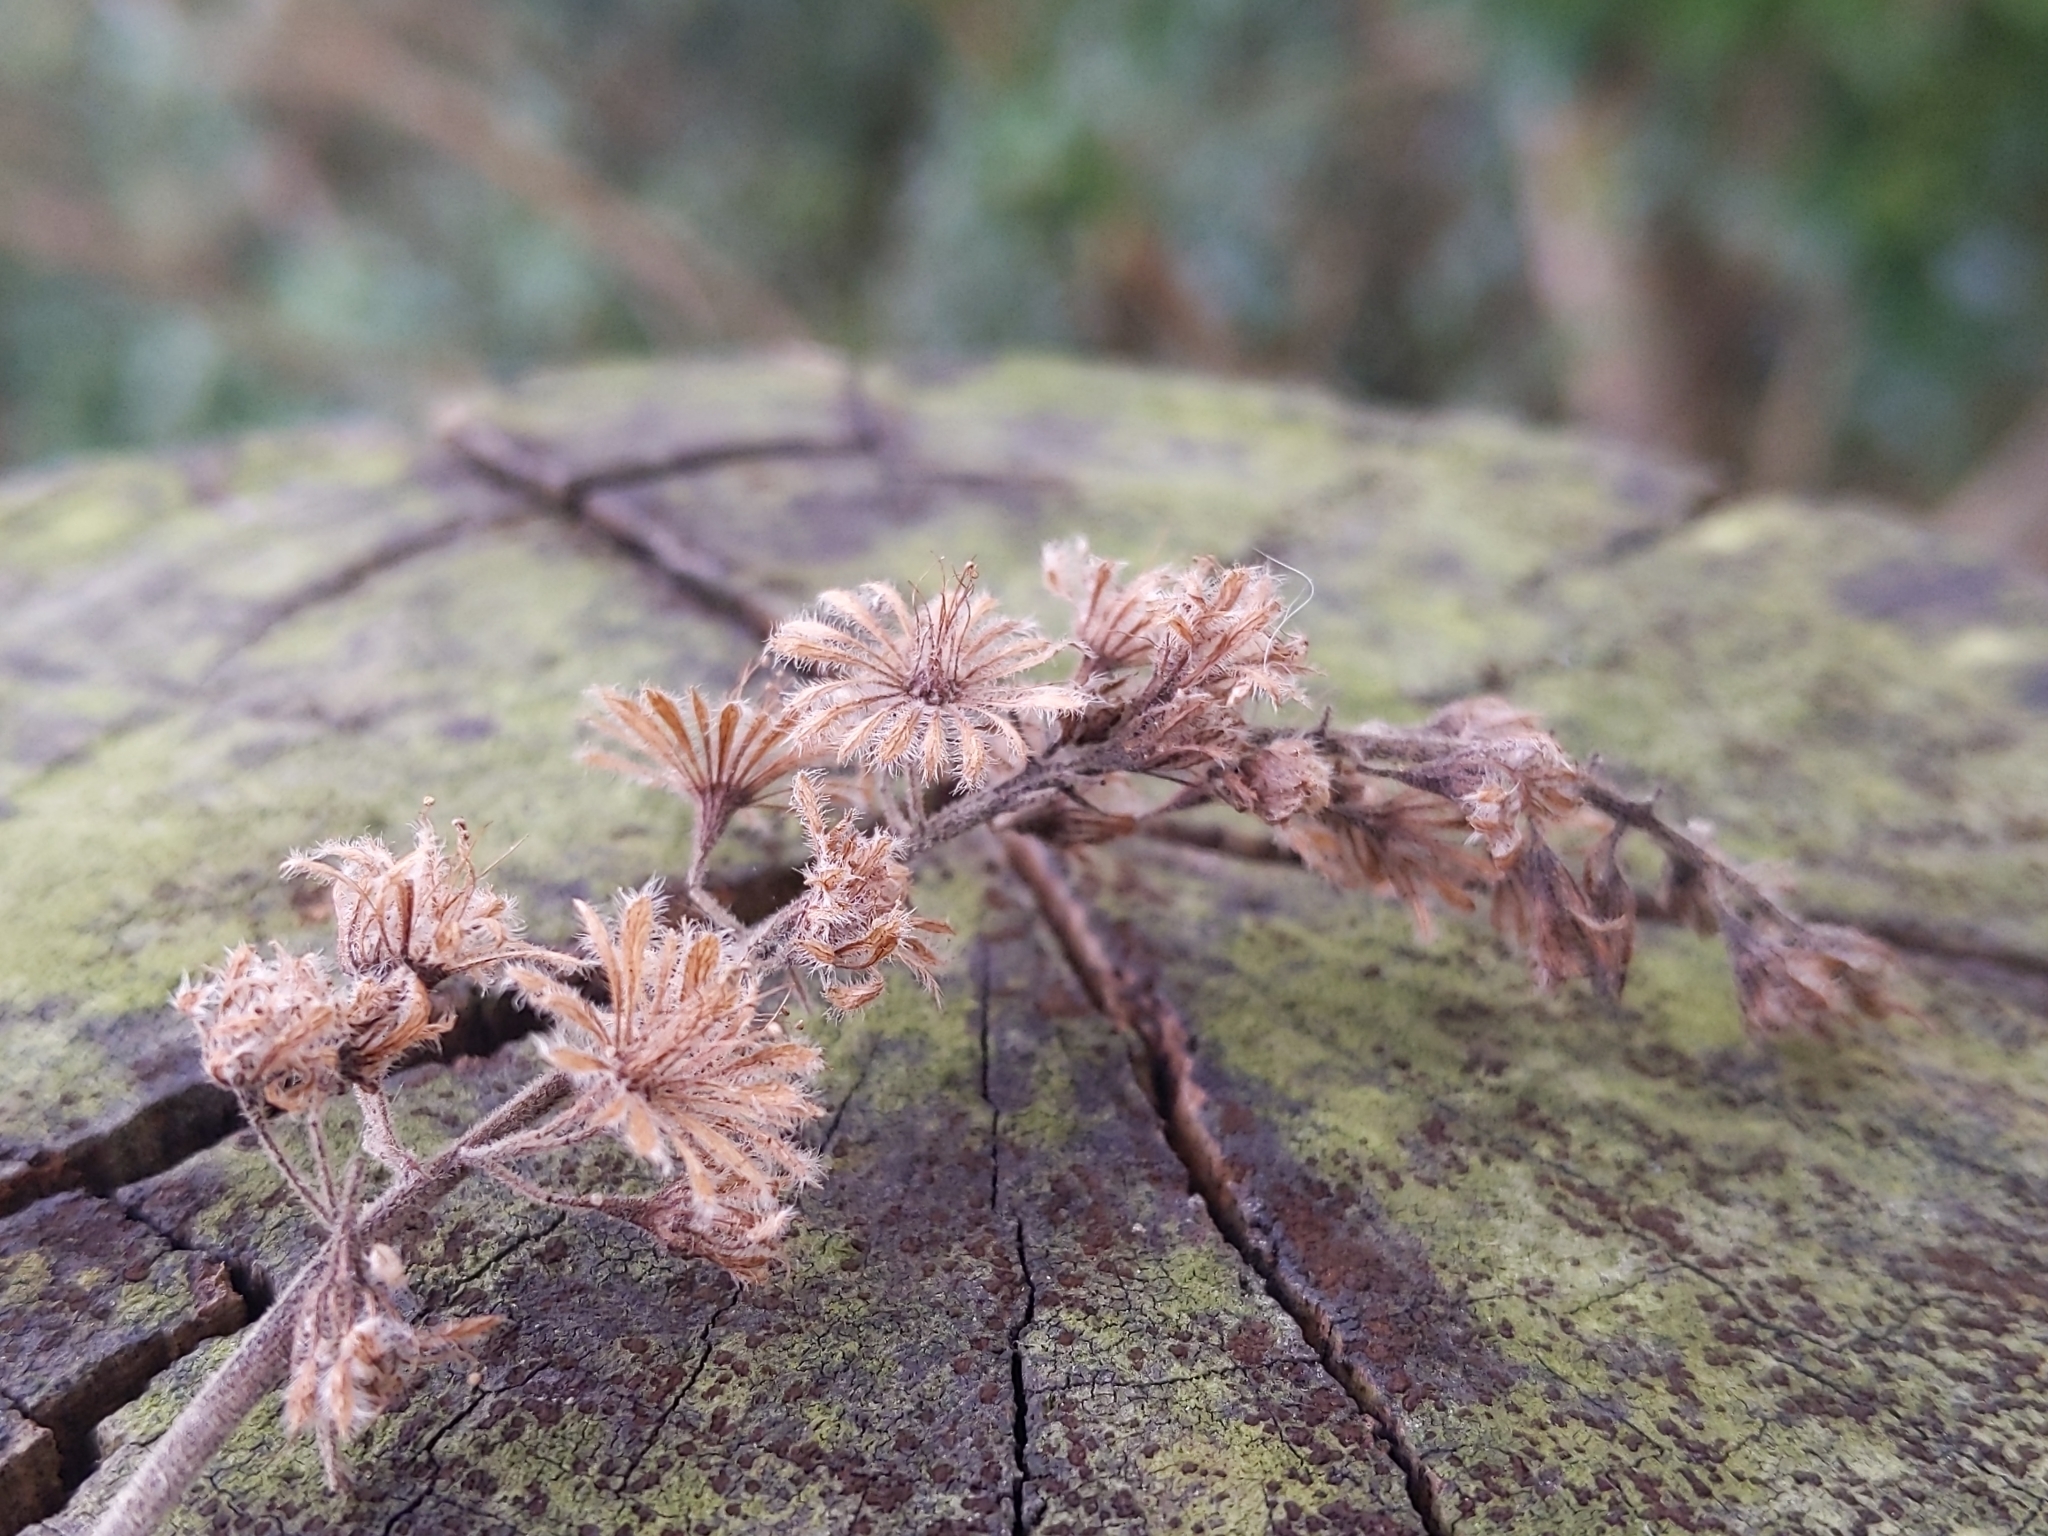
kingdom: Plantae
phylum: Tracheophyta
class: Magnoliopsida
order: Malpighiales
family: Salicaceae
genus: Homalium
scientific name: Homalium cochinchinensis
